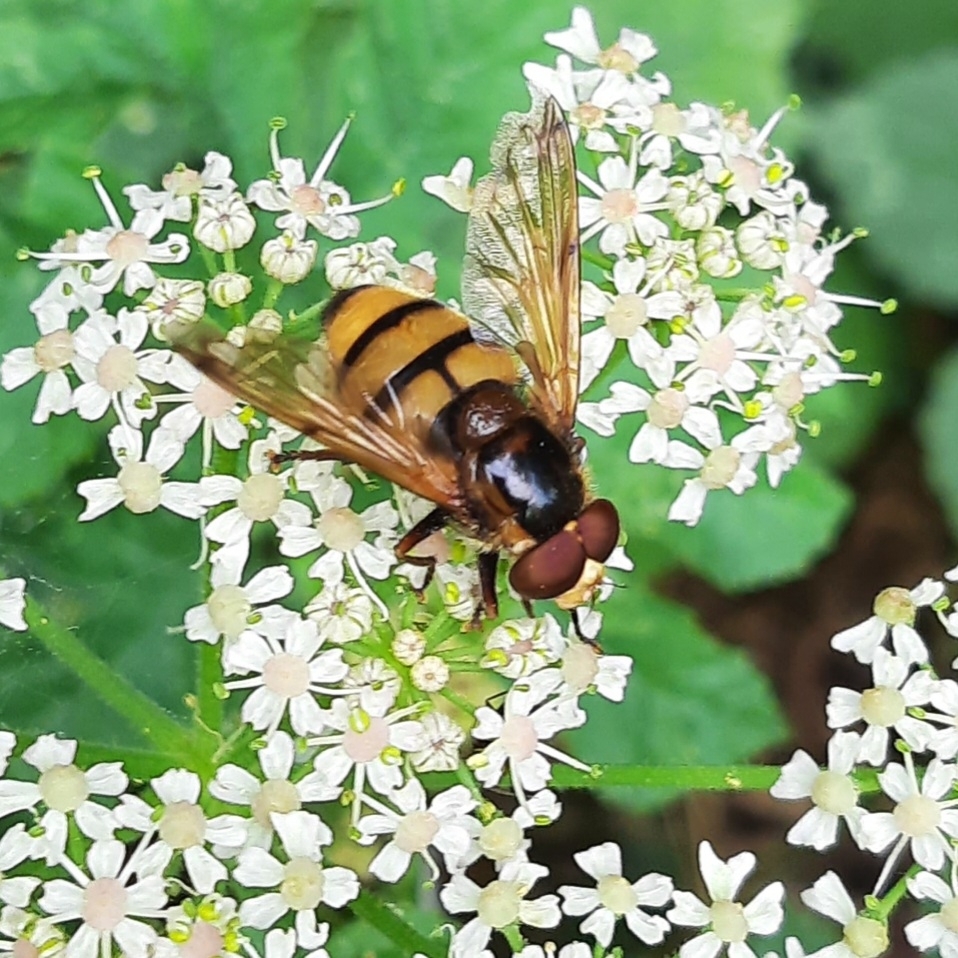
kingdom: Animalia
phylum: Arthropoda
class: Insecta
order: Diptera
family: Syrphidae
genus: Volucella
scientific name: Volucella inanis
